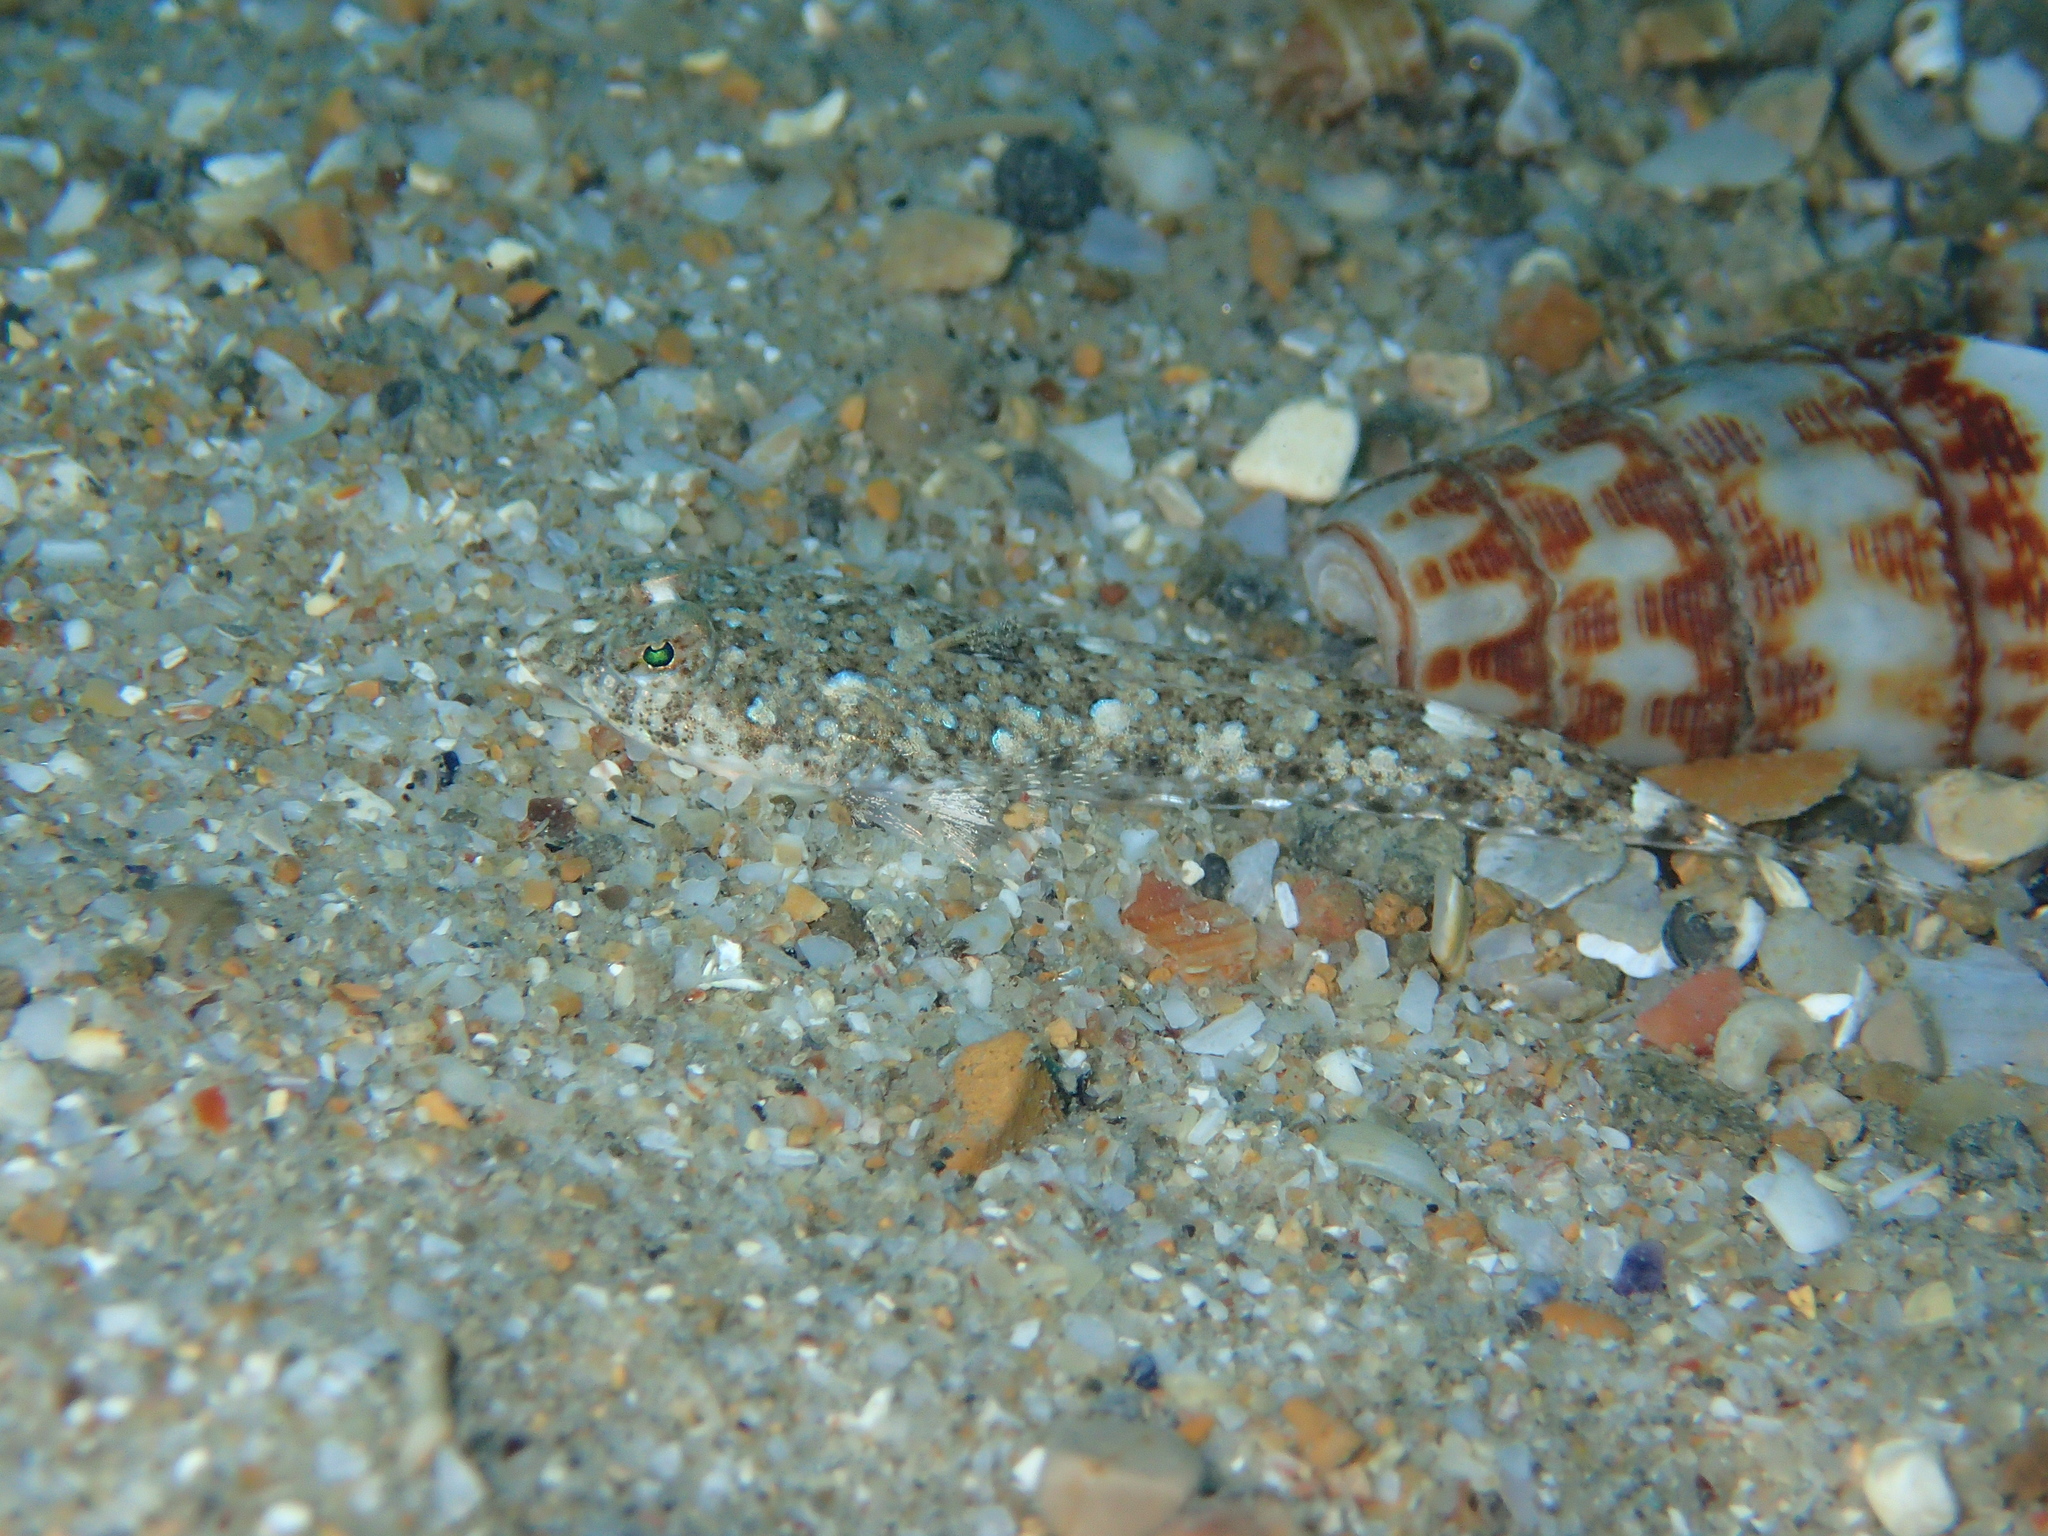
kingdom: Animalia
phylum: Chordata
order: Perciformes
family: Callionymidae
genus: Callionymus
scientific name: Callionymus risso
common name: Risso’s dragonet
